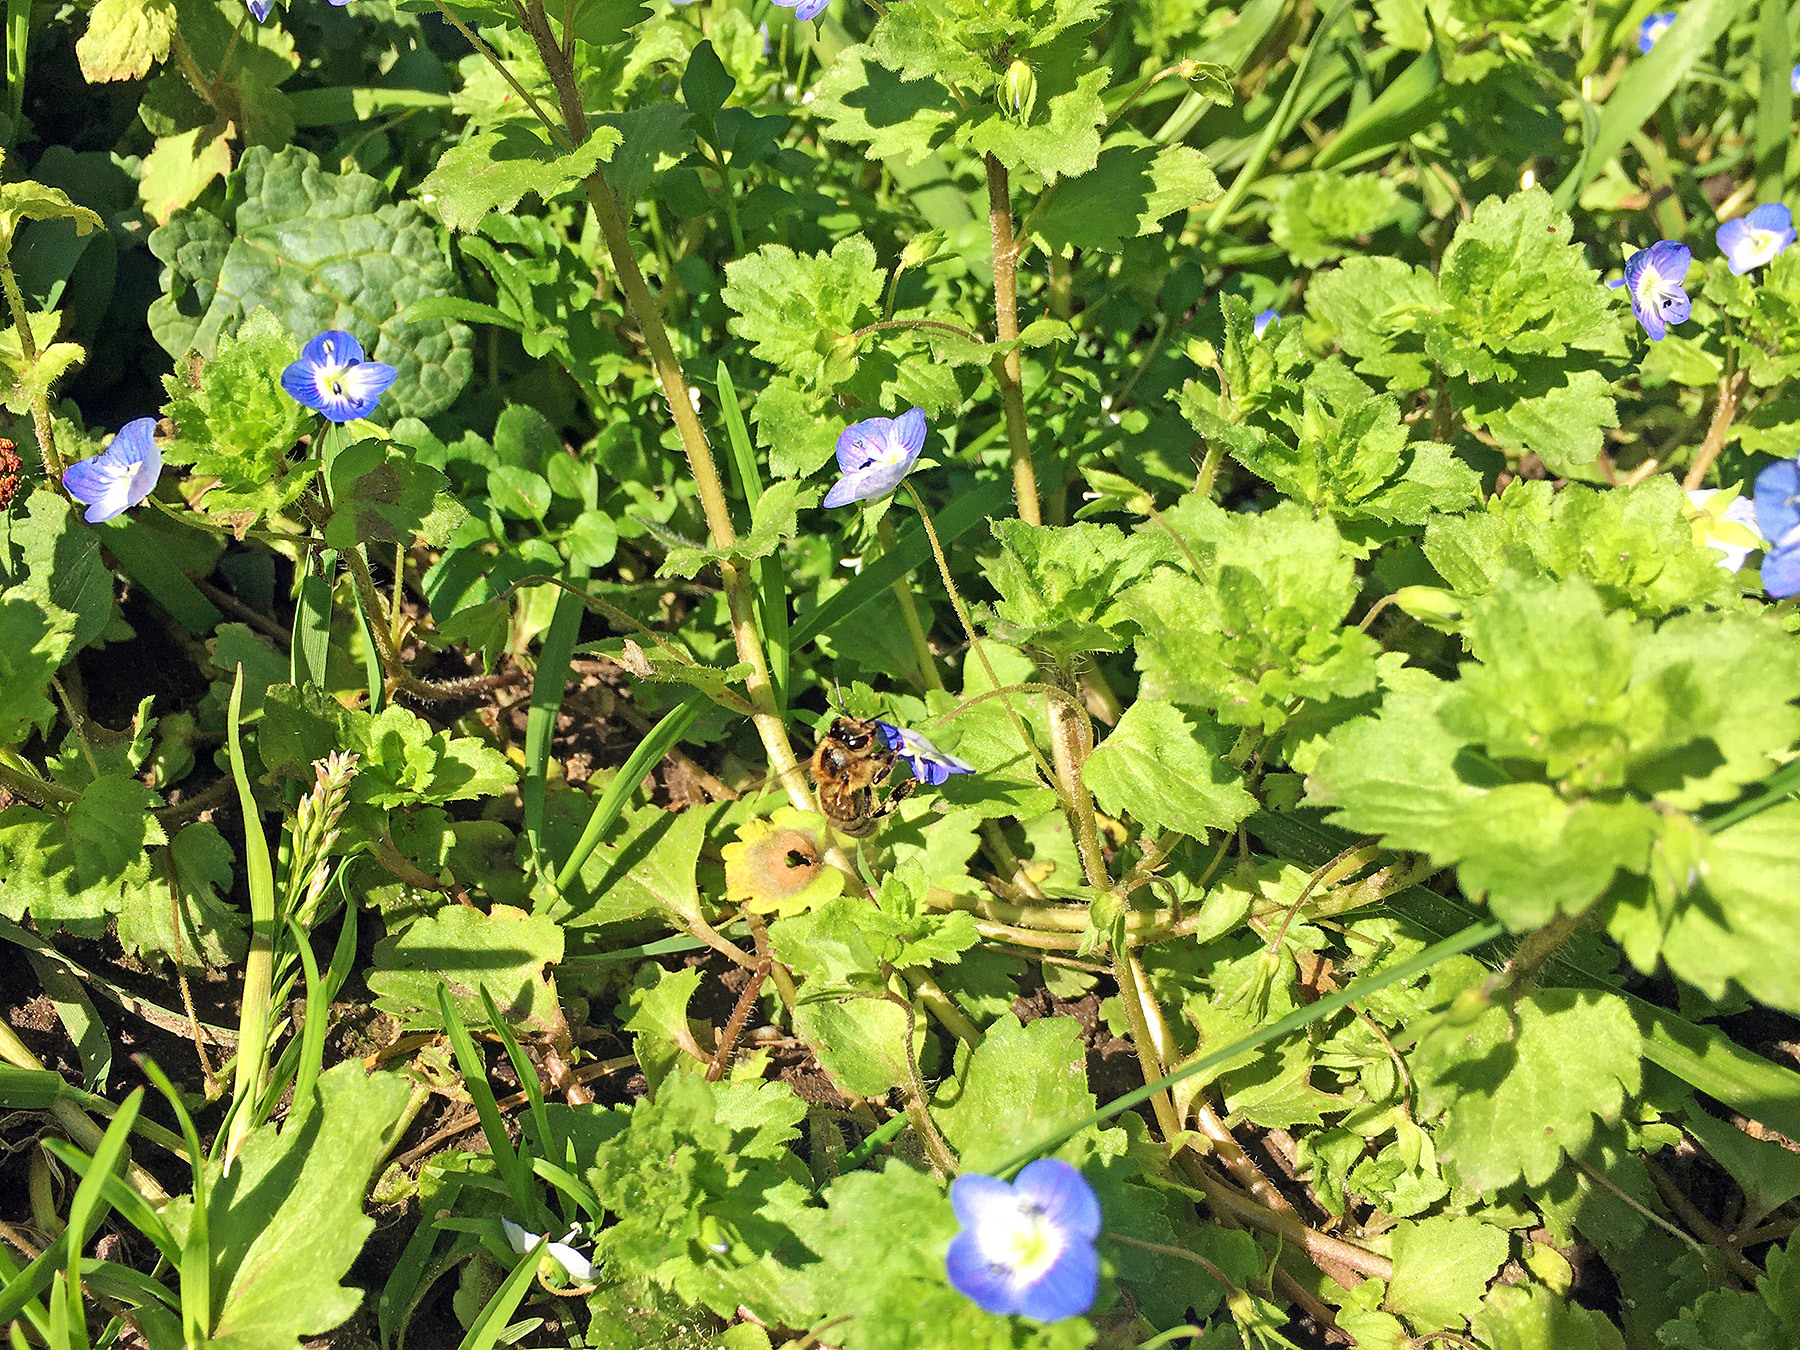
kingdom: Animalia
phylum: Arthropoda
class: Insecta
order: Hymenoptera
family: Apidae
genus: Apis
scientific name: Apis mellifera
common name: Honey bee
